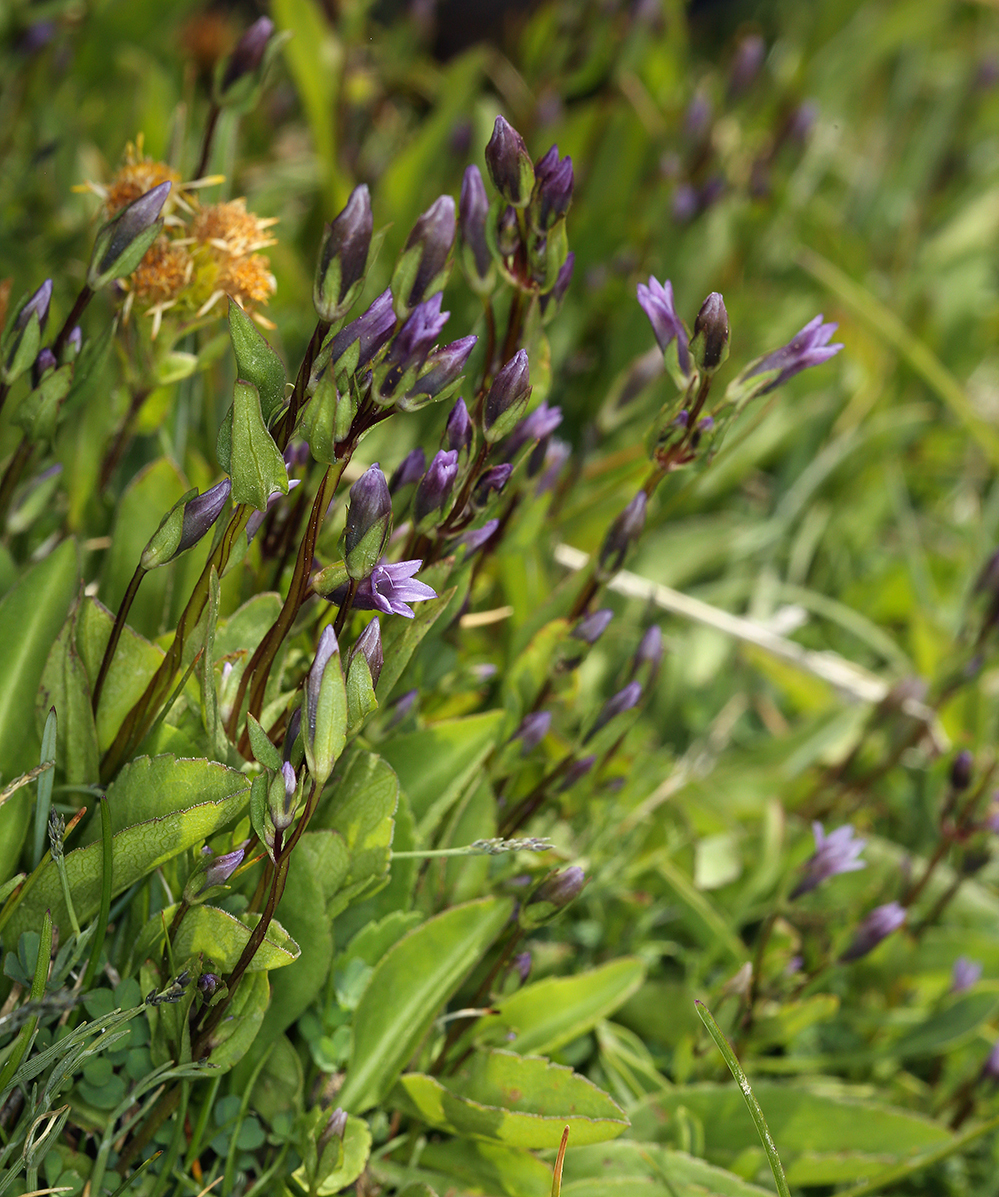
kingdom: Plantae
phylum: Tracheophyta
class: Magnoliopsida
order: Gentianales
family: Gentianaceae
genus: Gentianella
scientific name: Gentianella amarella
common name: Autumn gentian
